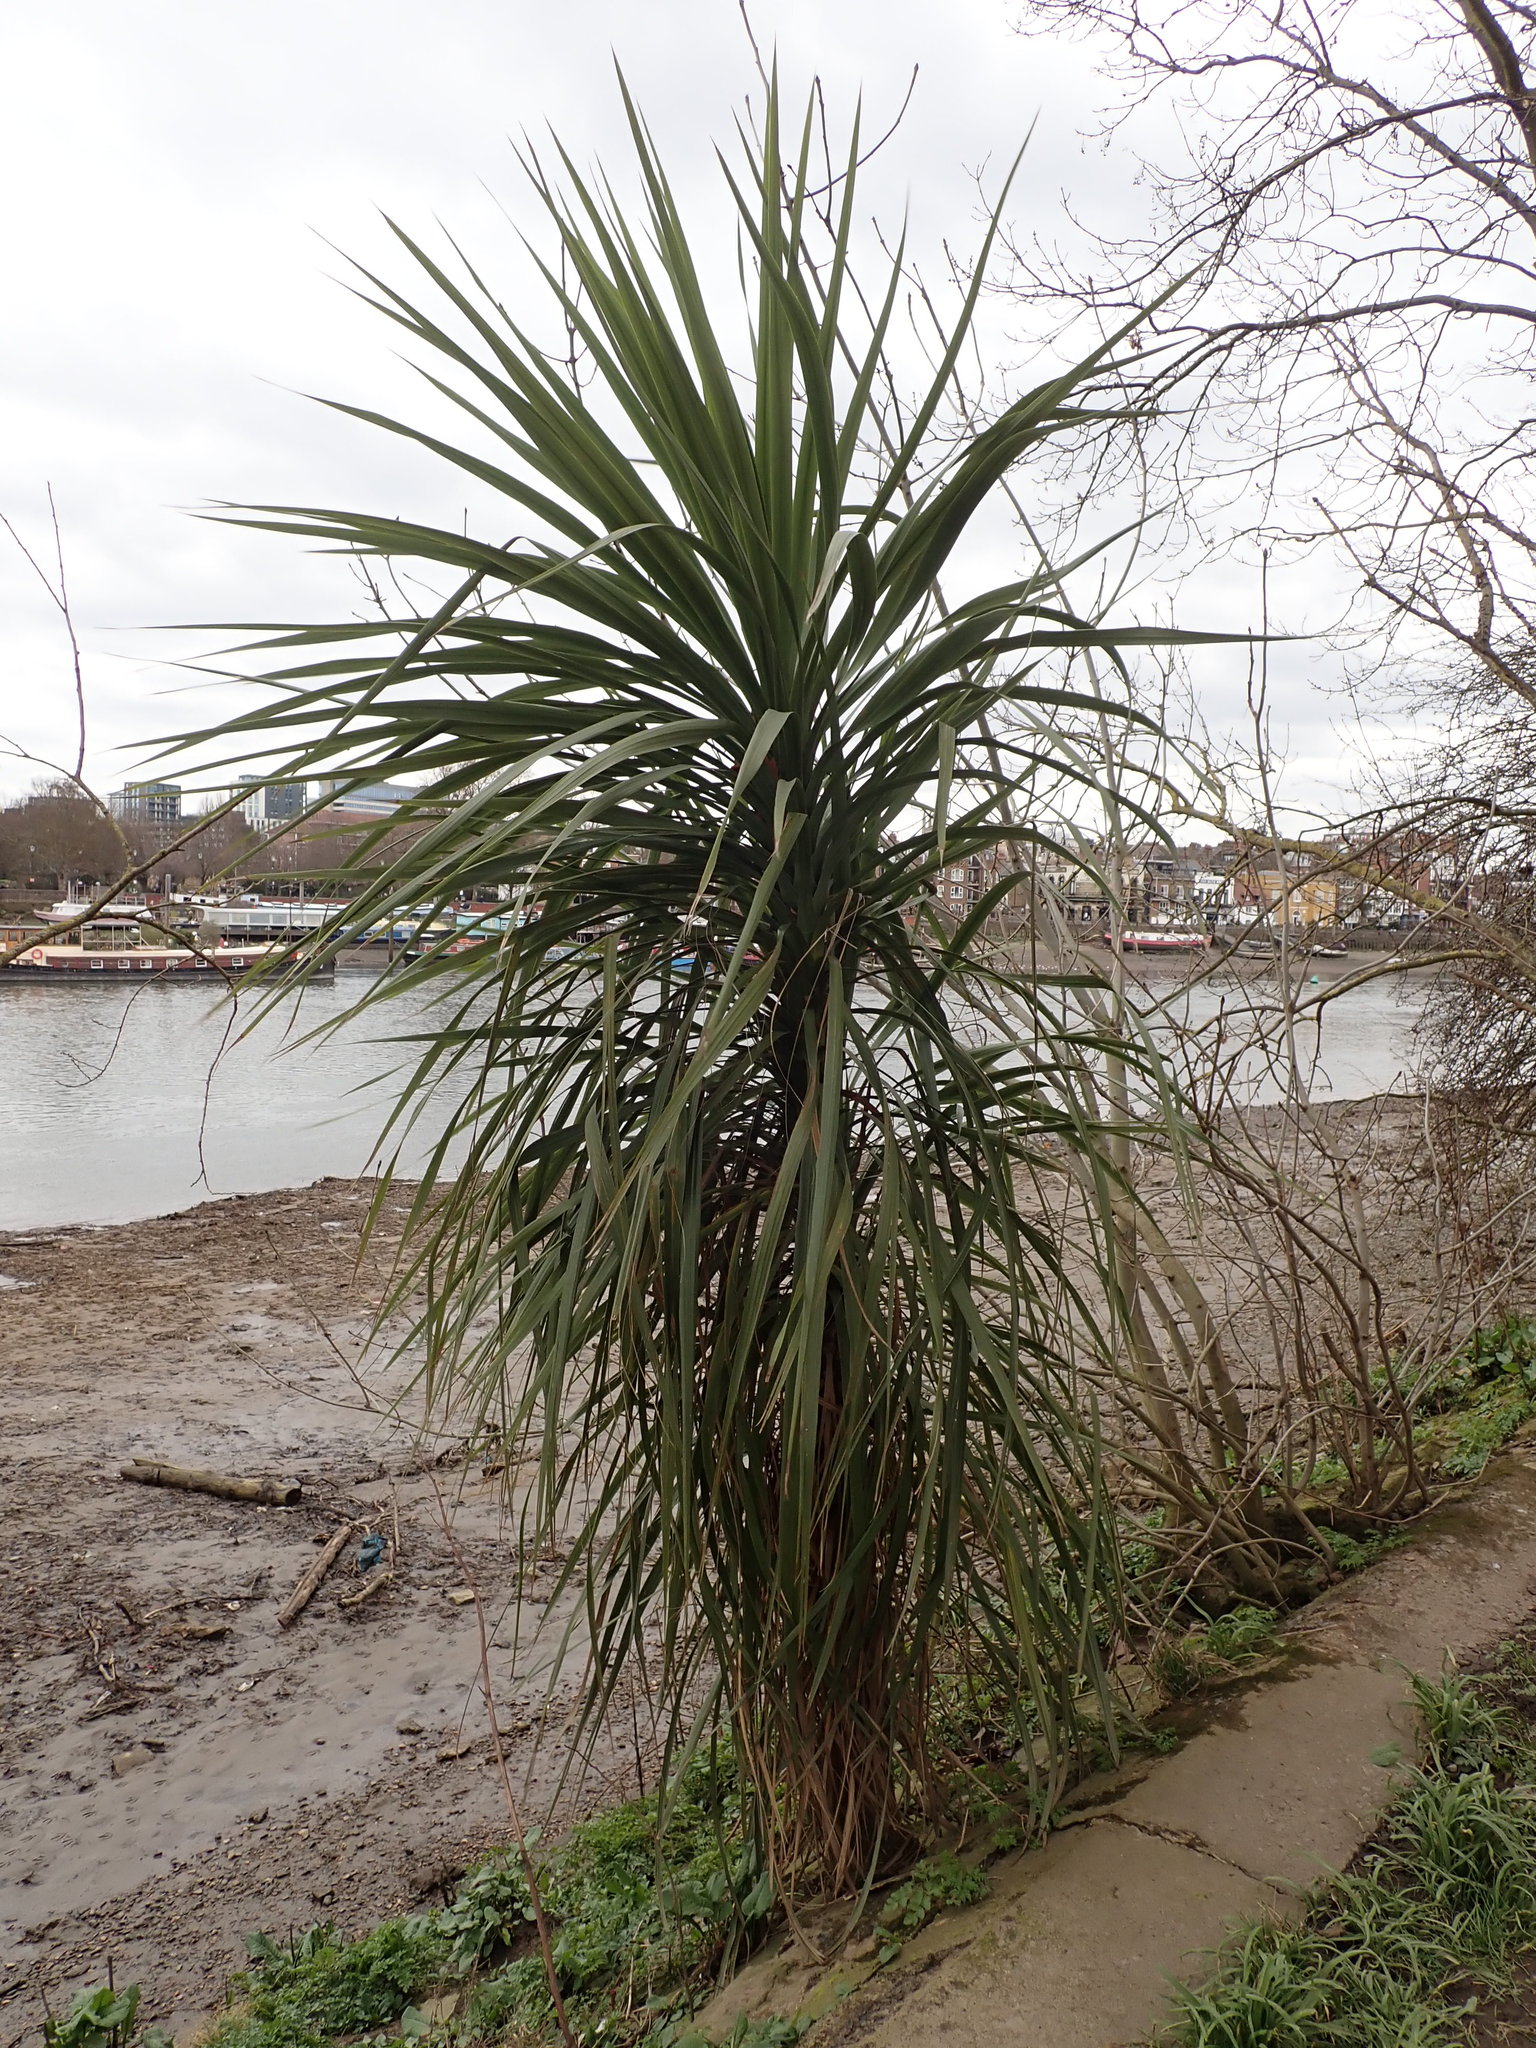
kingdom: Plantae
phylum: Tracheophyta
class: Liliopsida
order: Asparagales
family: Asparagaceae
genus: Cordyline
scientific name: Cordyline australis
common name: Cabbage-palm
